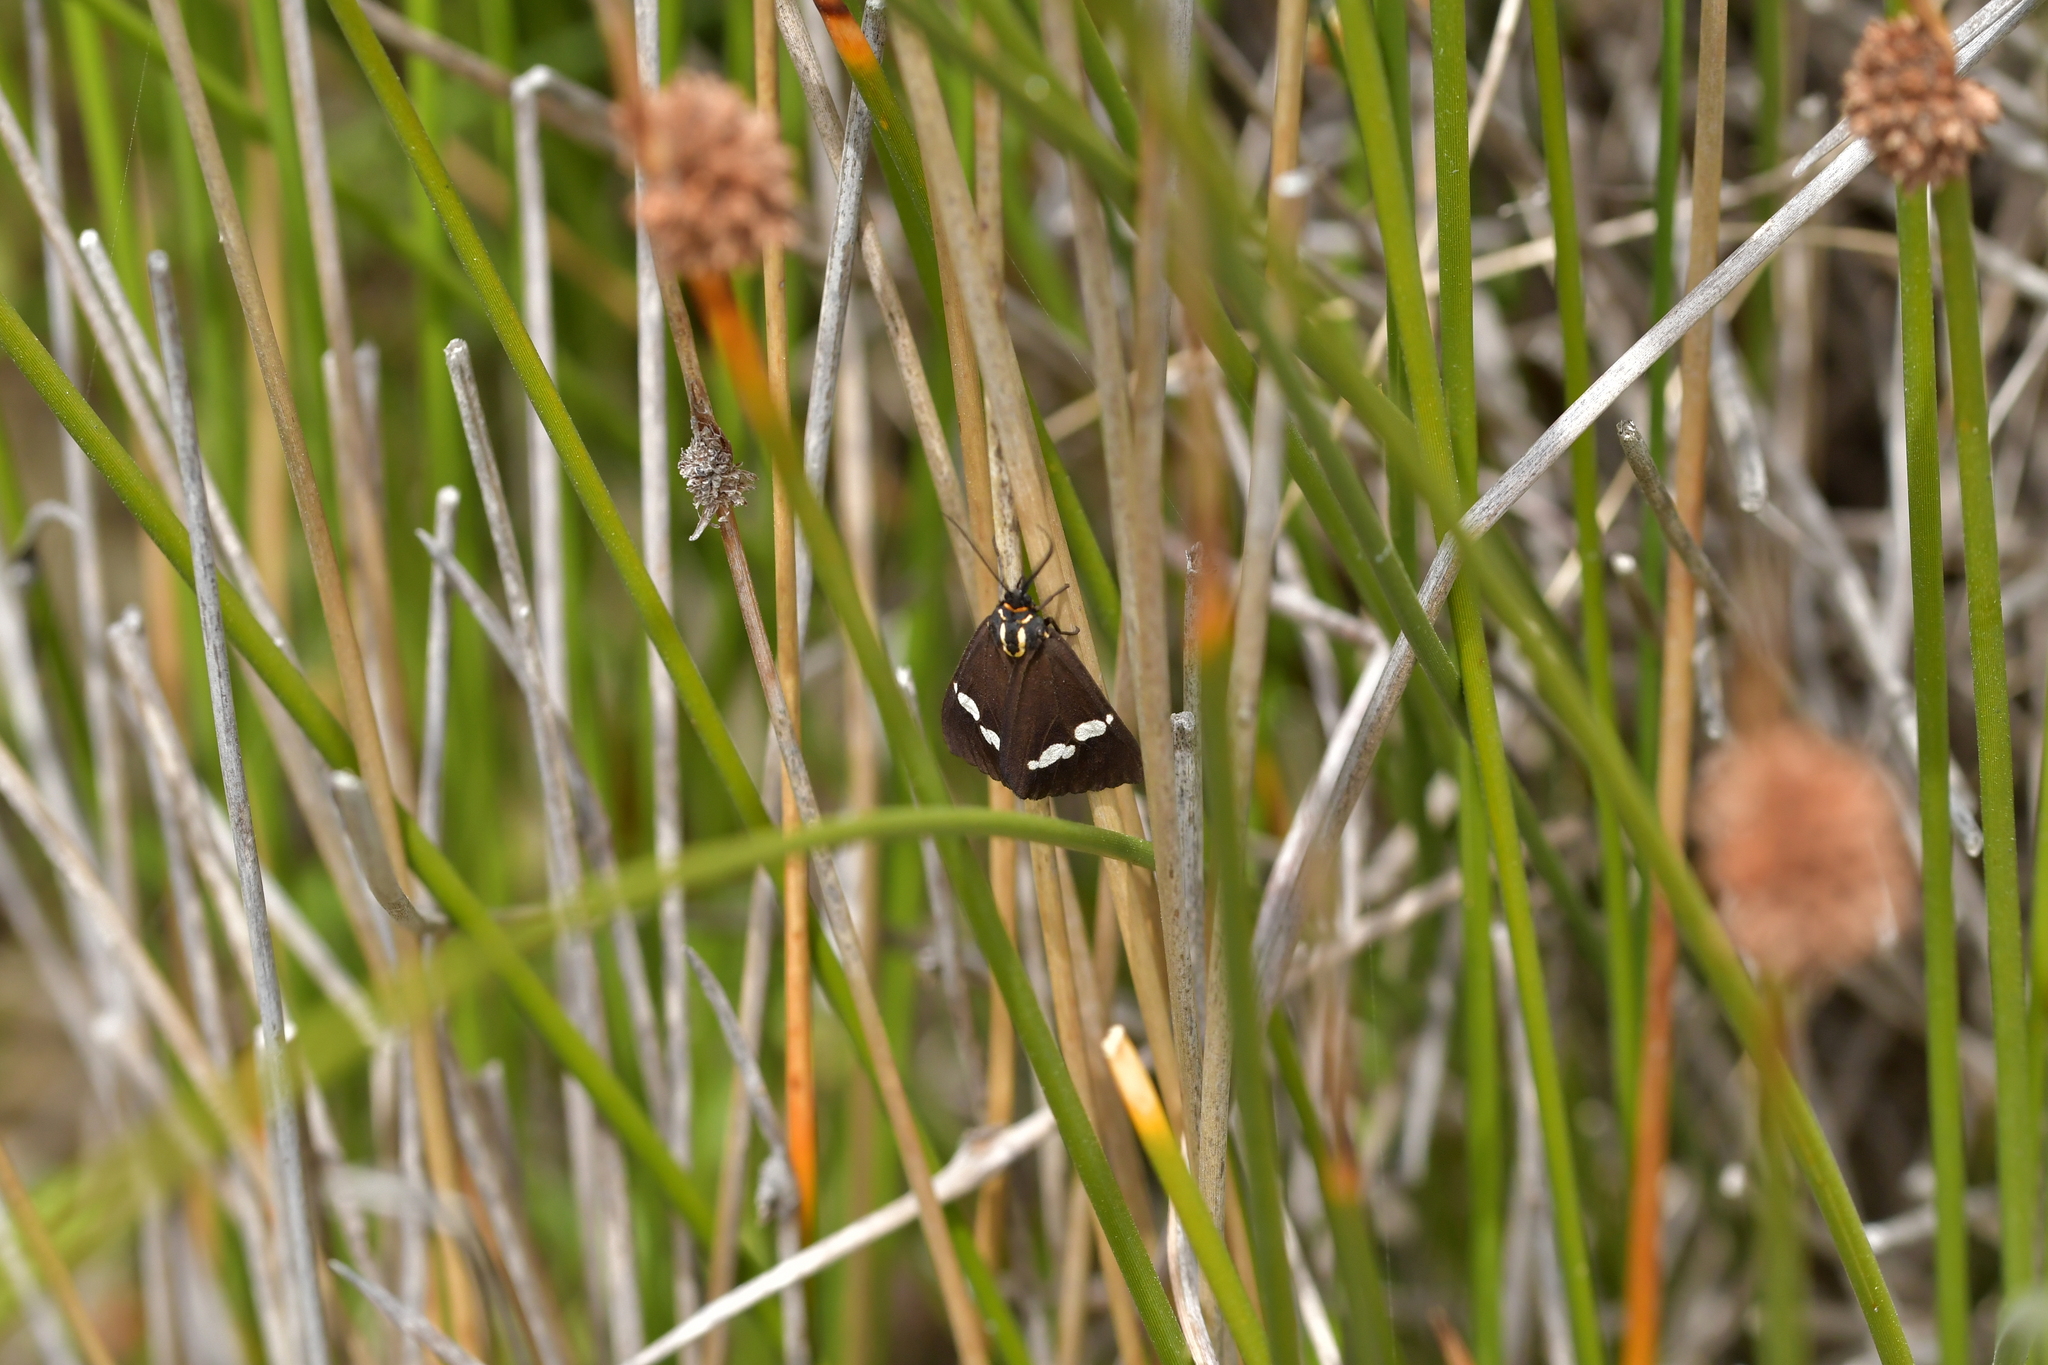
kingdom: Animalia
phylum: Arthropoda
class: Insecta
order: Lepidoptera
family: Erebidae
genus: Nyctemera
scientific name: Nyctemera annulatum
